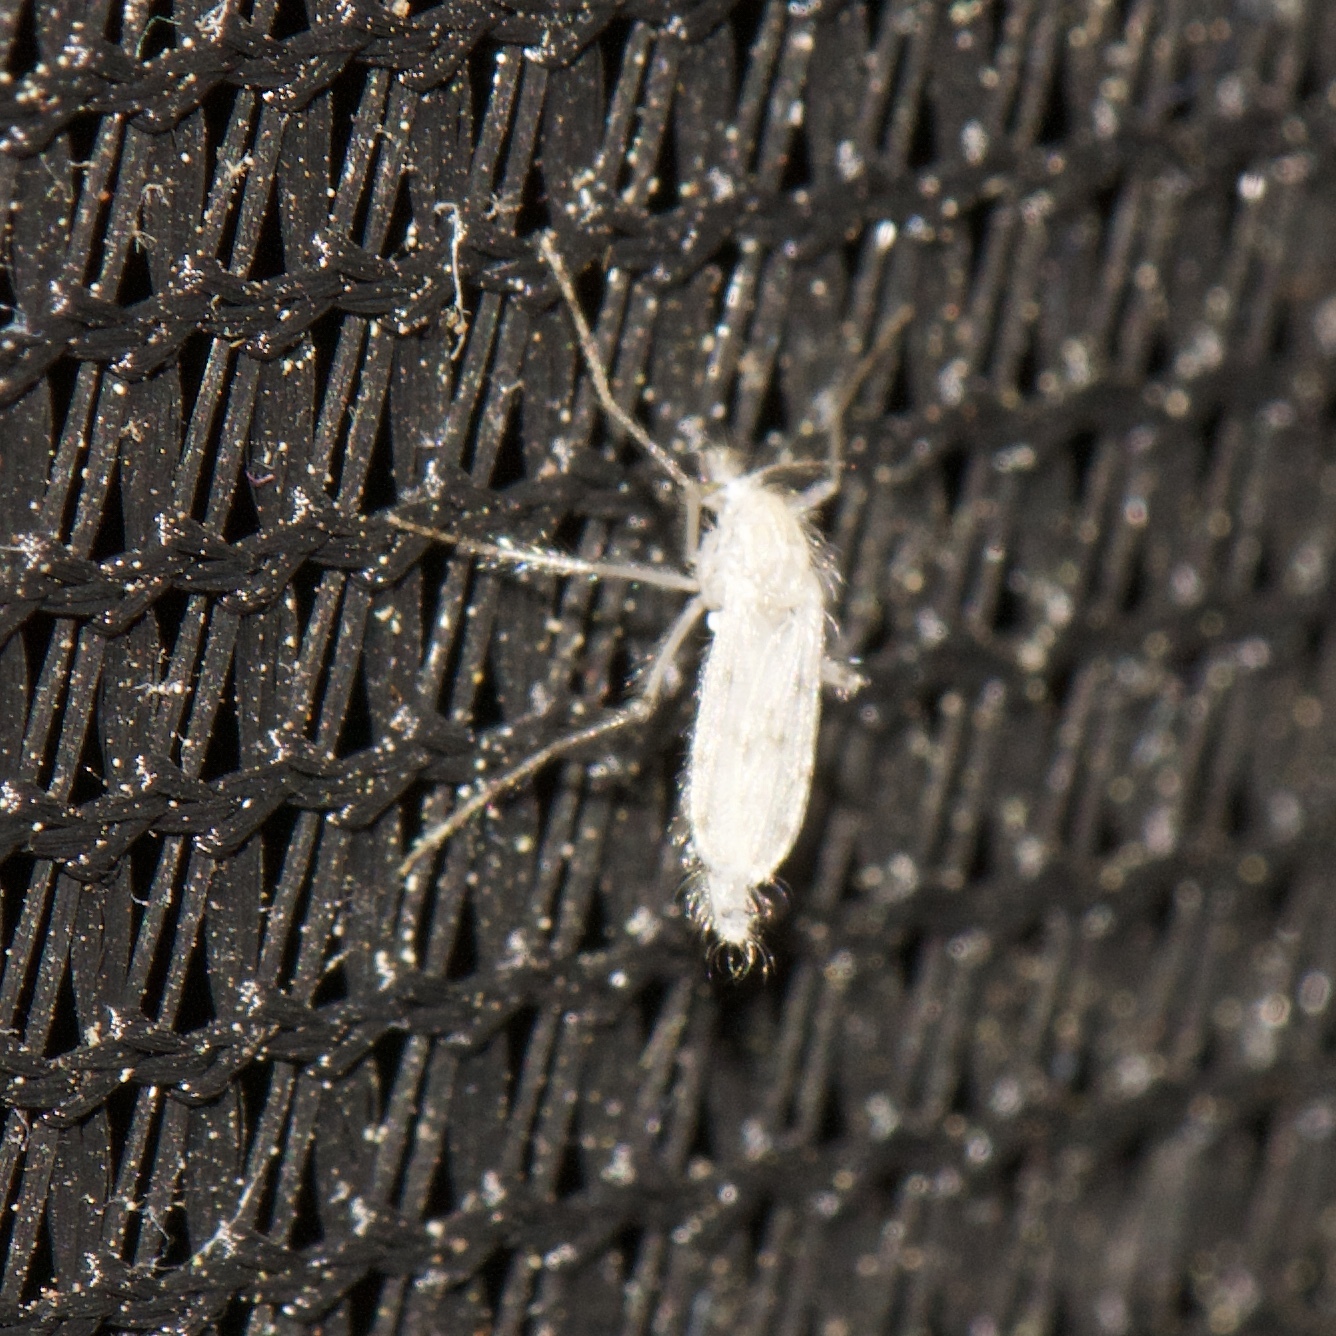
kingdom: Animalia
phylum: Arthropoda
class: Insecta
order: Diptera
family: Chaoboridae
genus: Chaoborus
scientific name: Chaoborus albatus
